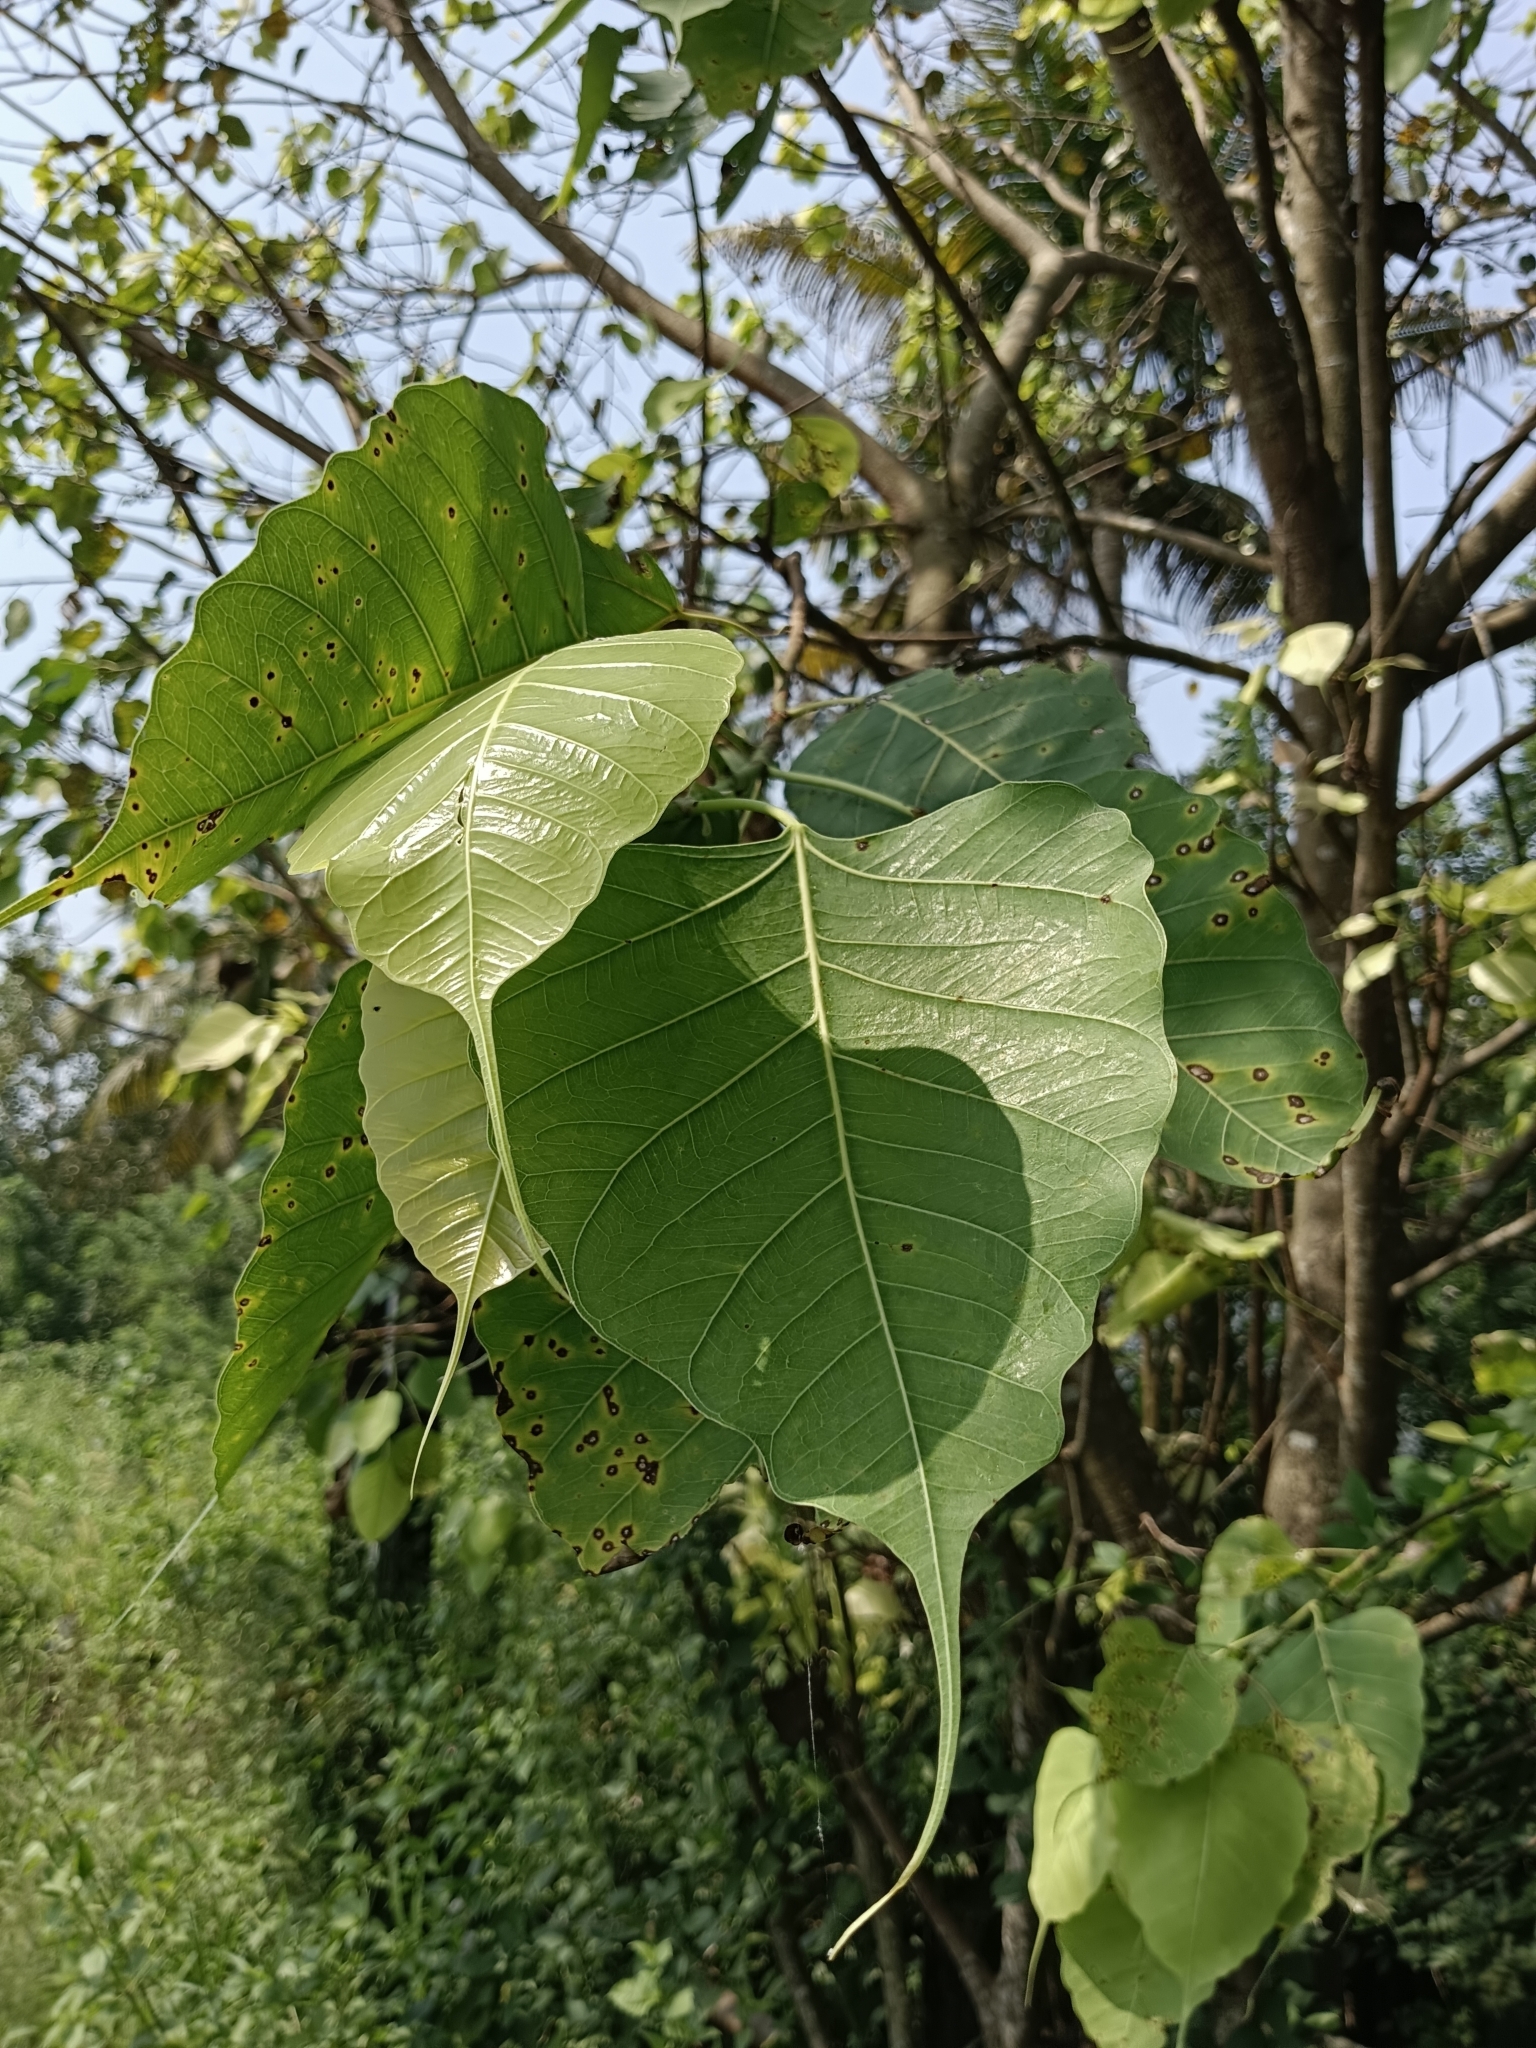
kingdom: Plantae
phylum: Tracheophyta
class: Magnoliopsida
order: Rosales
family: Moraceae
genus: Ficus
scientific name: Ficus religiosa
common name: Bodhi tree
